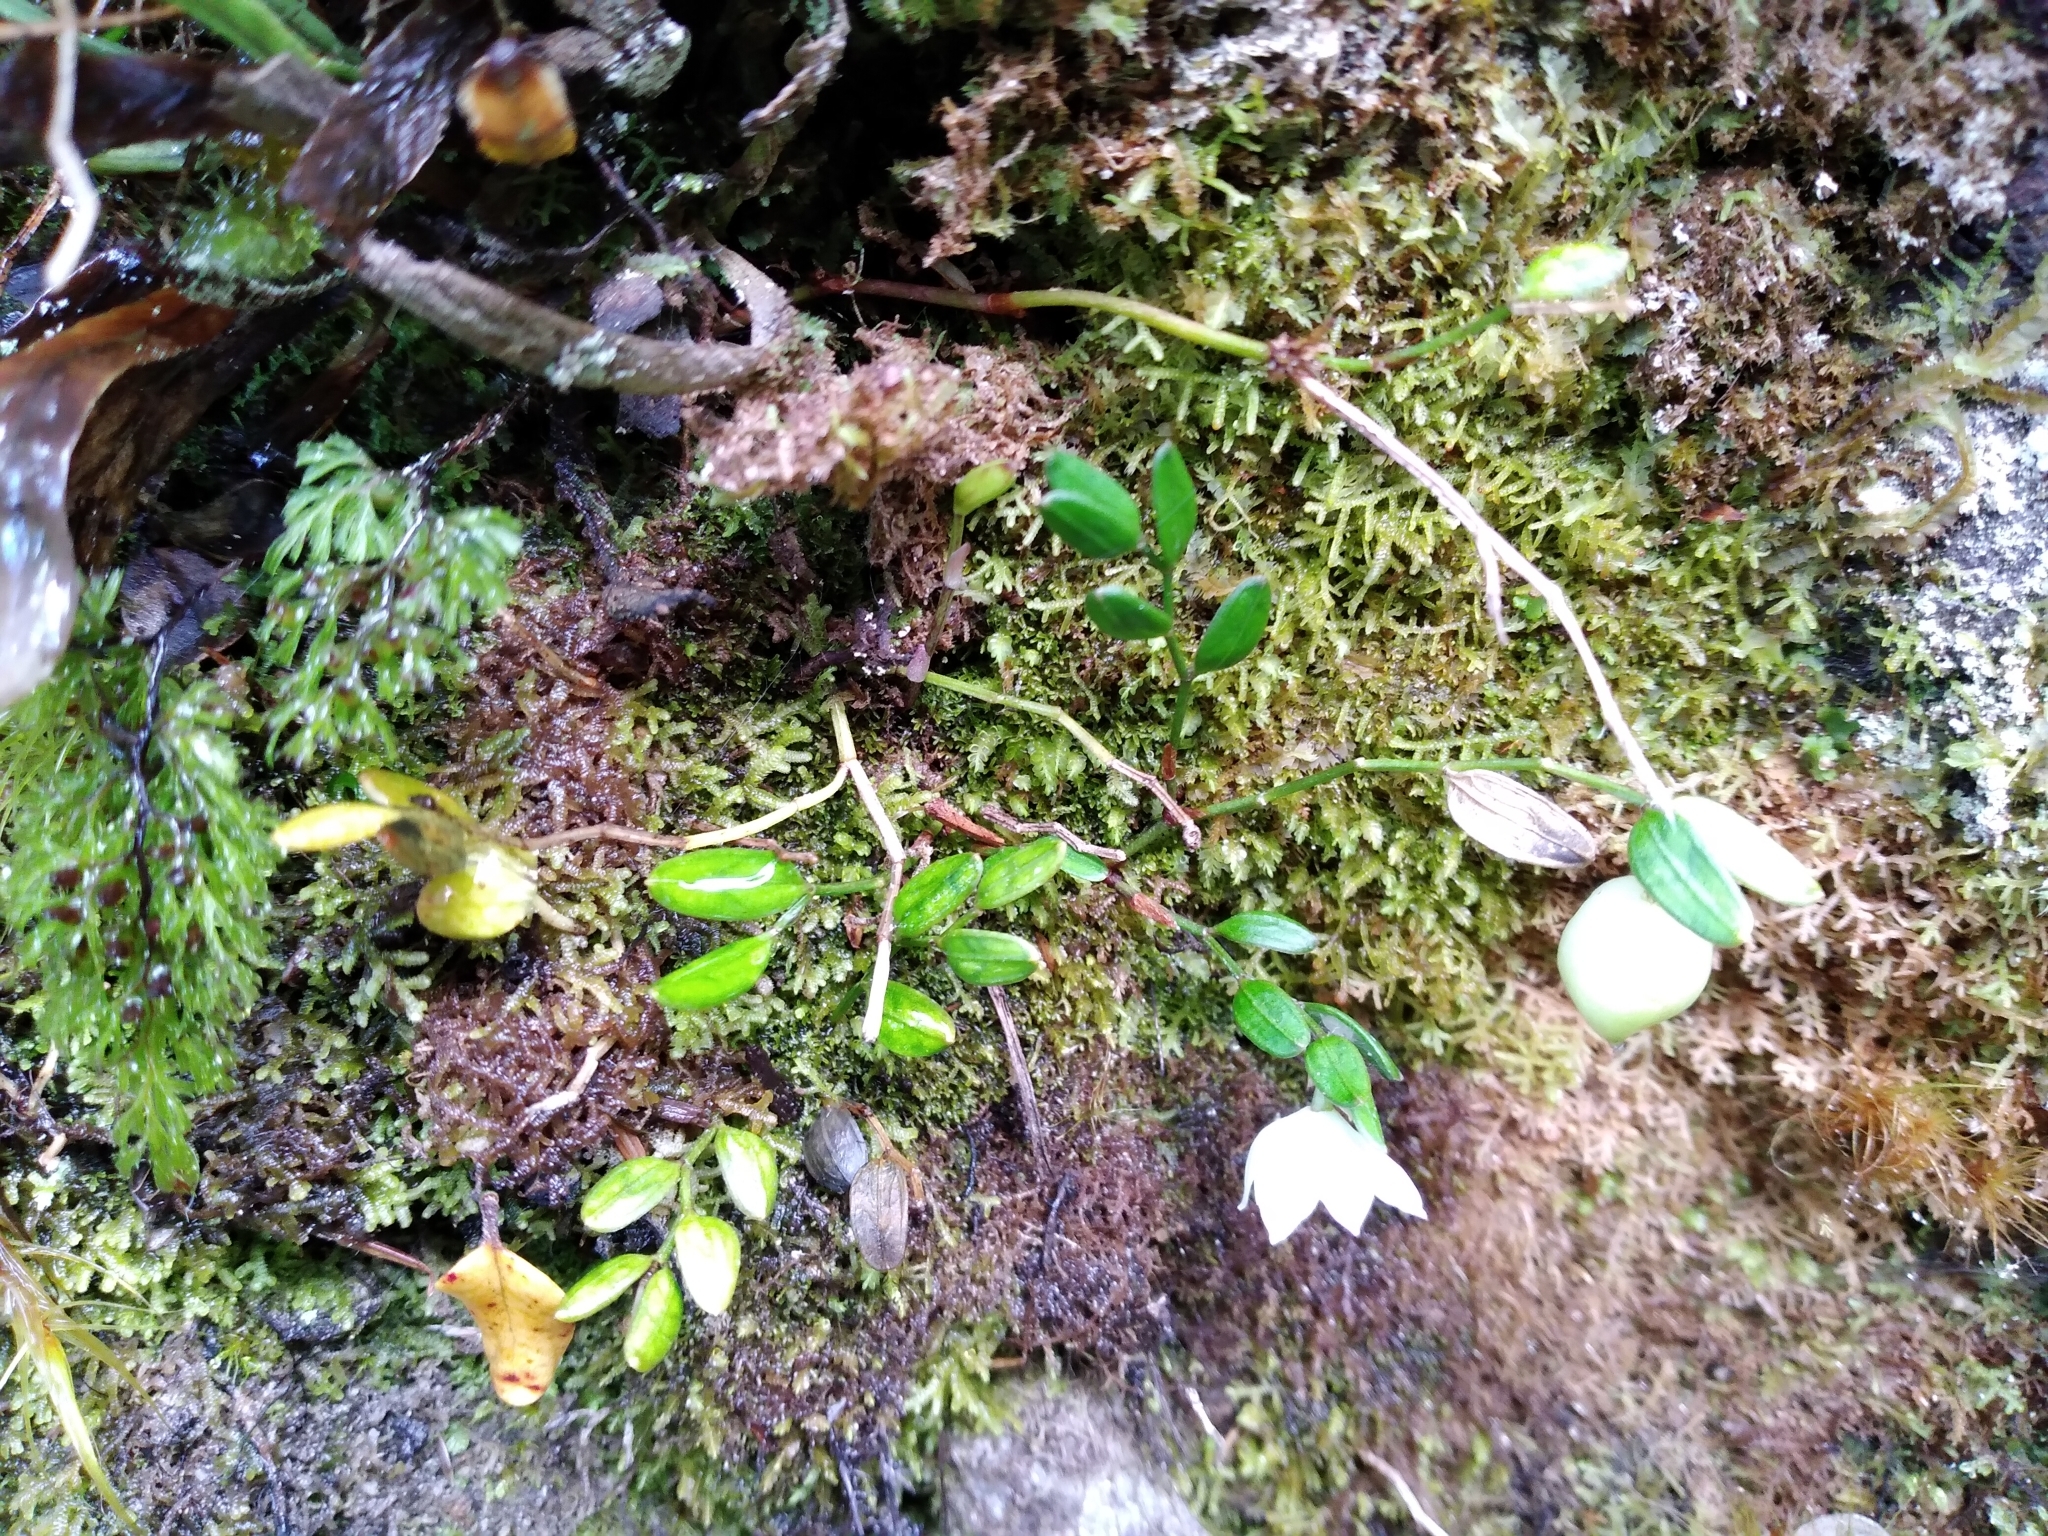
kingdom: Plantae
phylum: Tracheophyta
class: Liliopsida
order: Liliales
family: Alstroemeriaceae
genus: Luzuriaga
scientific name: Luzuriaga parviflora
